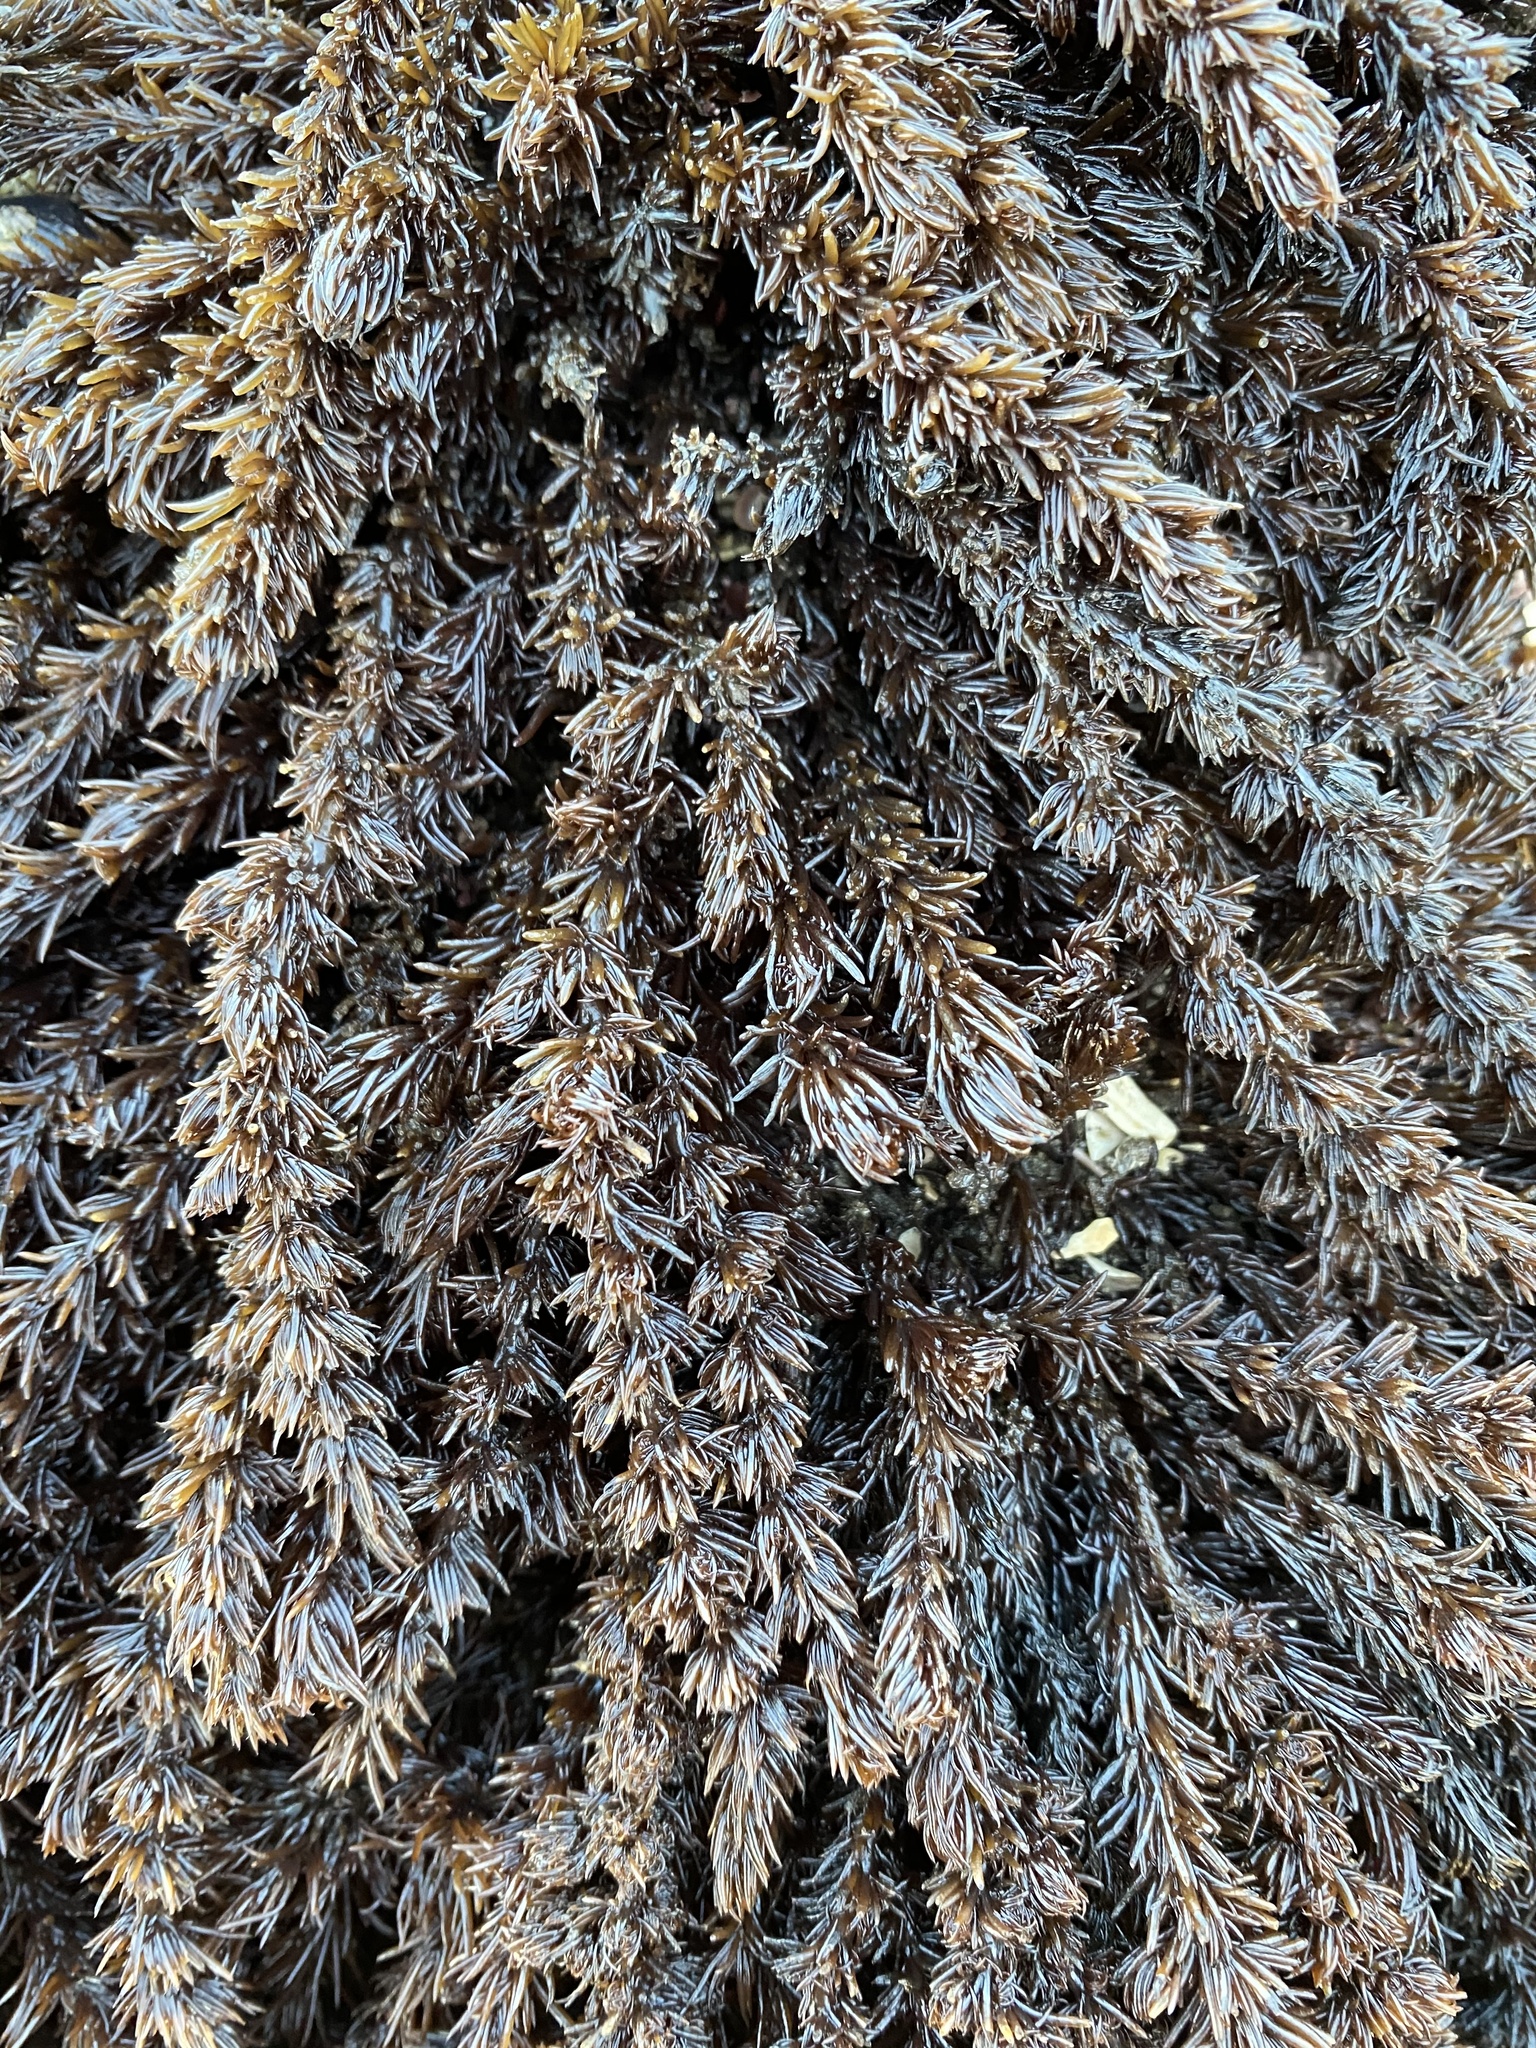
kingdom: Plantae
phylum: Rhodophyta
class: Florideophyceae
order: Ceramiales
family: Rhodomelaceae
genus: Neorhodomela
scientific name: Neorhodomela larix
